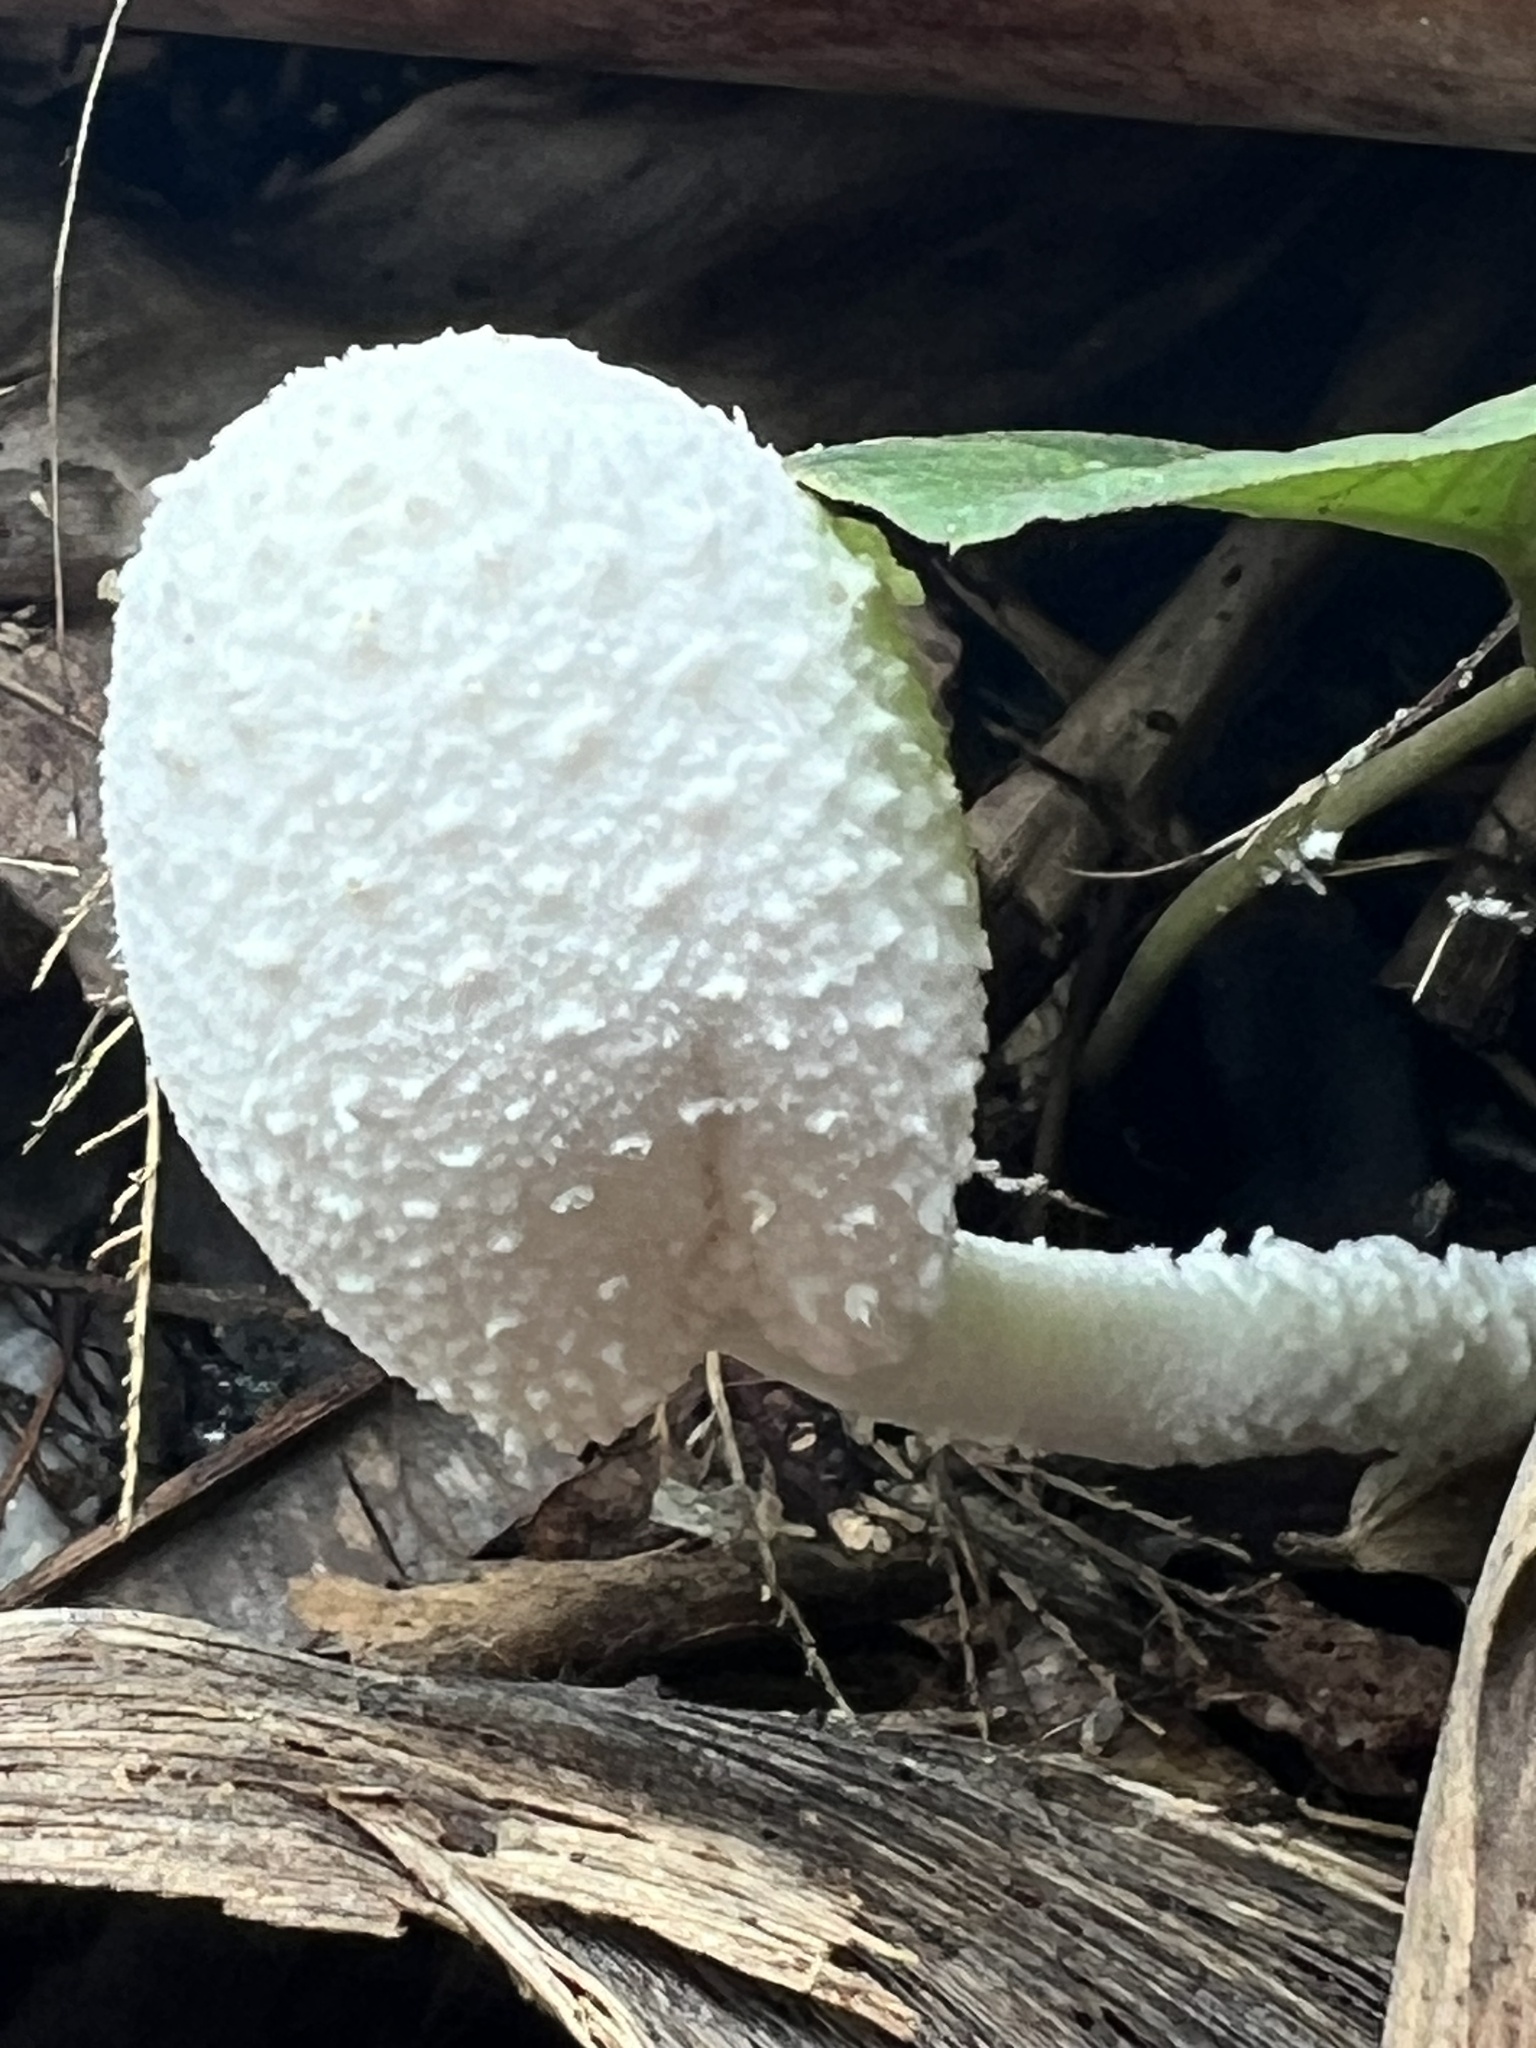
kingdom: Fungi
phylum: Basidiomycota
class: Agaricomycetes
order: Agaricales
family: Agaricaceae
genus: Leucocoprinus
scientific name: Leucocoprinus cretaceus
